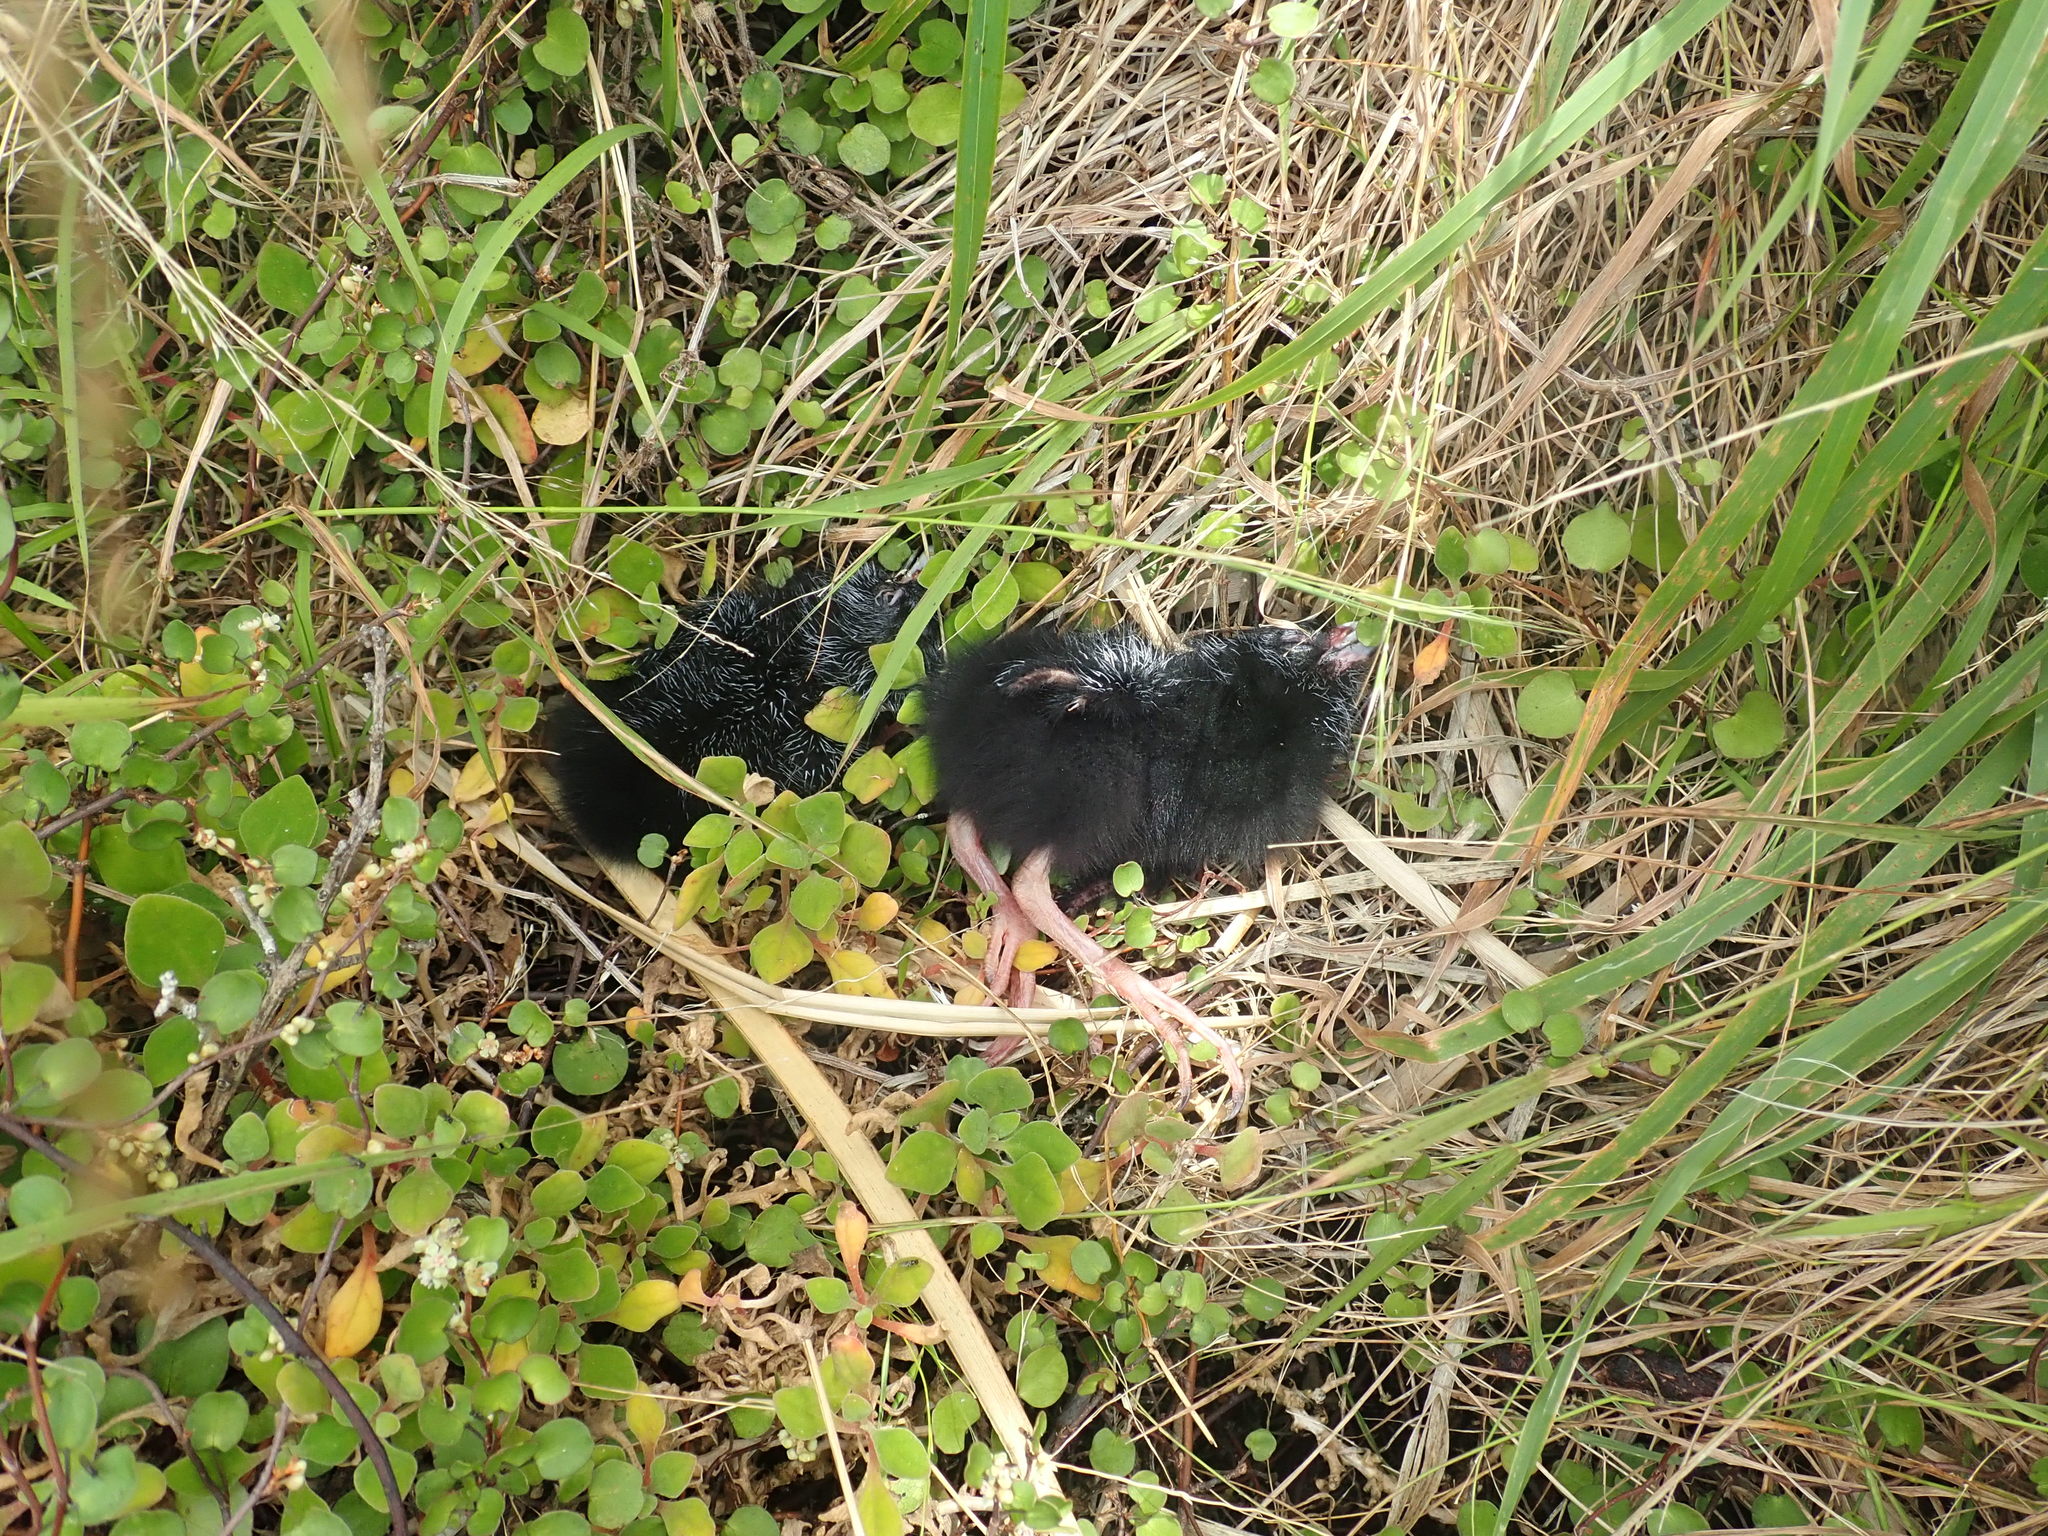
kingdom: Animalia
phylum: Chordata
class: Aves
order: Gruiformes
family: Rallidae
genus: Porphyrio
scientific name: Porphyrio melanotus
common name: Australasian swamphen
